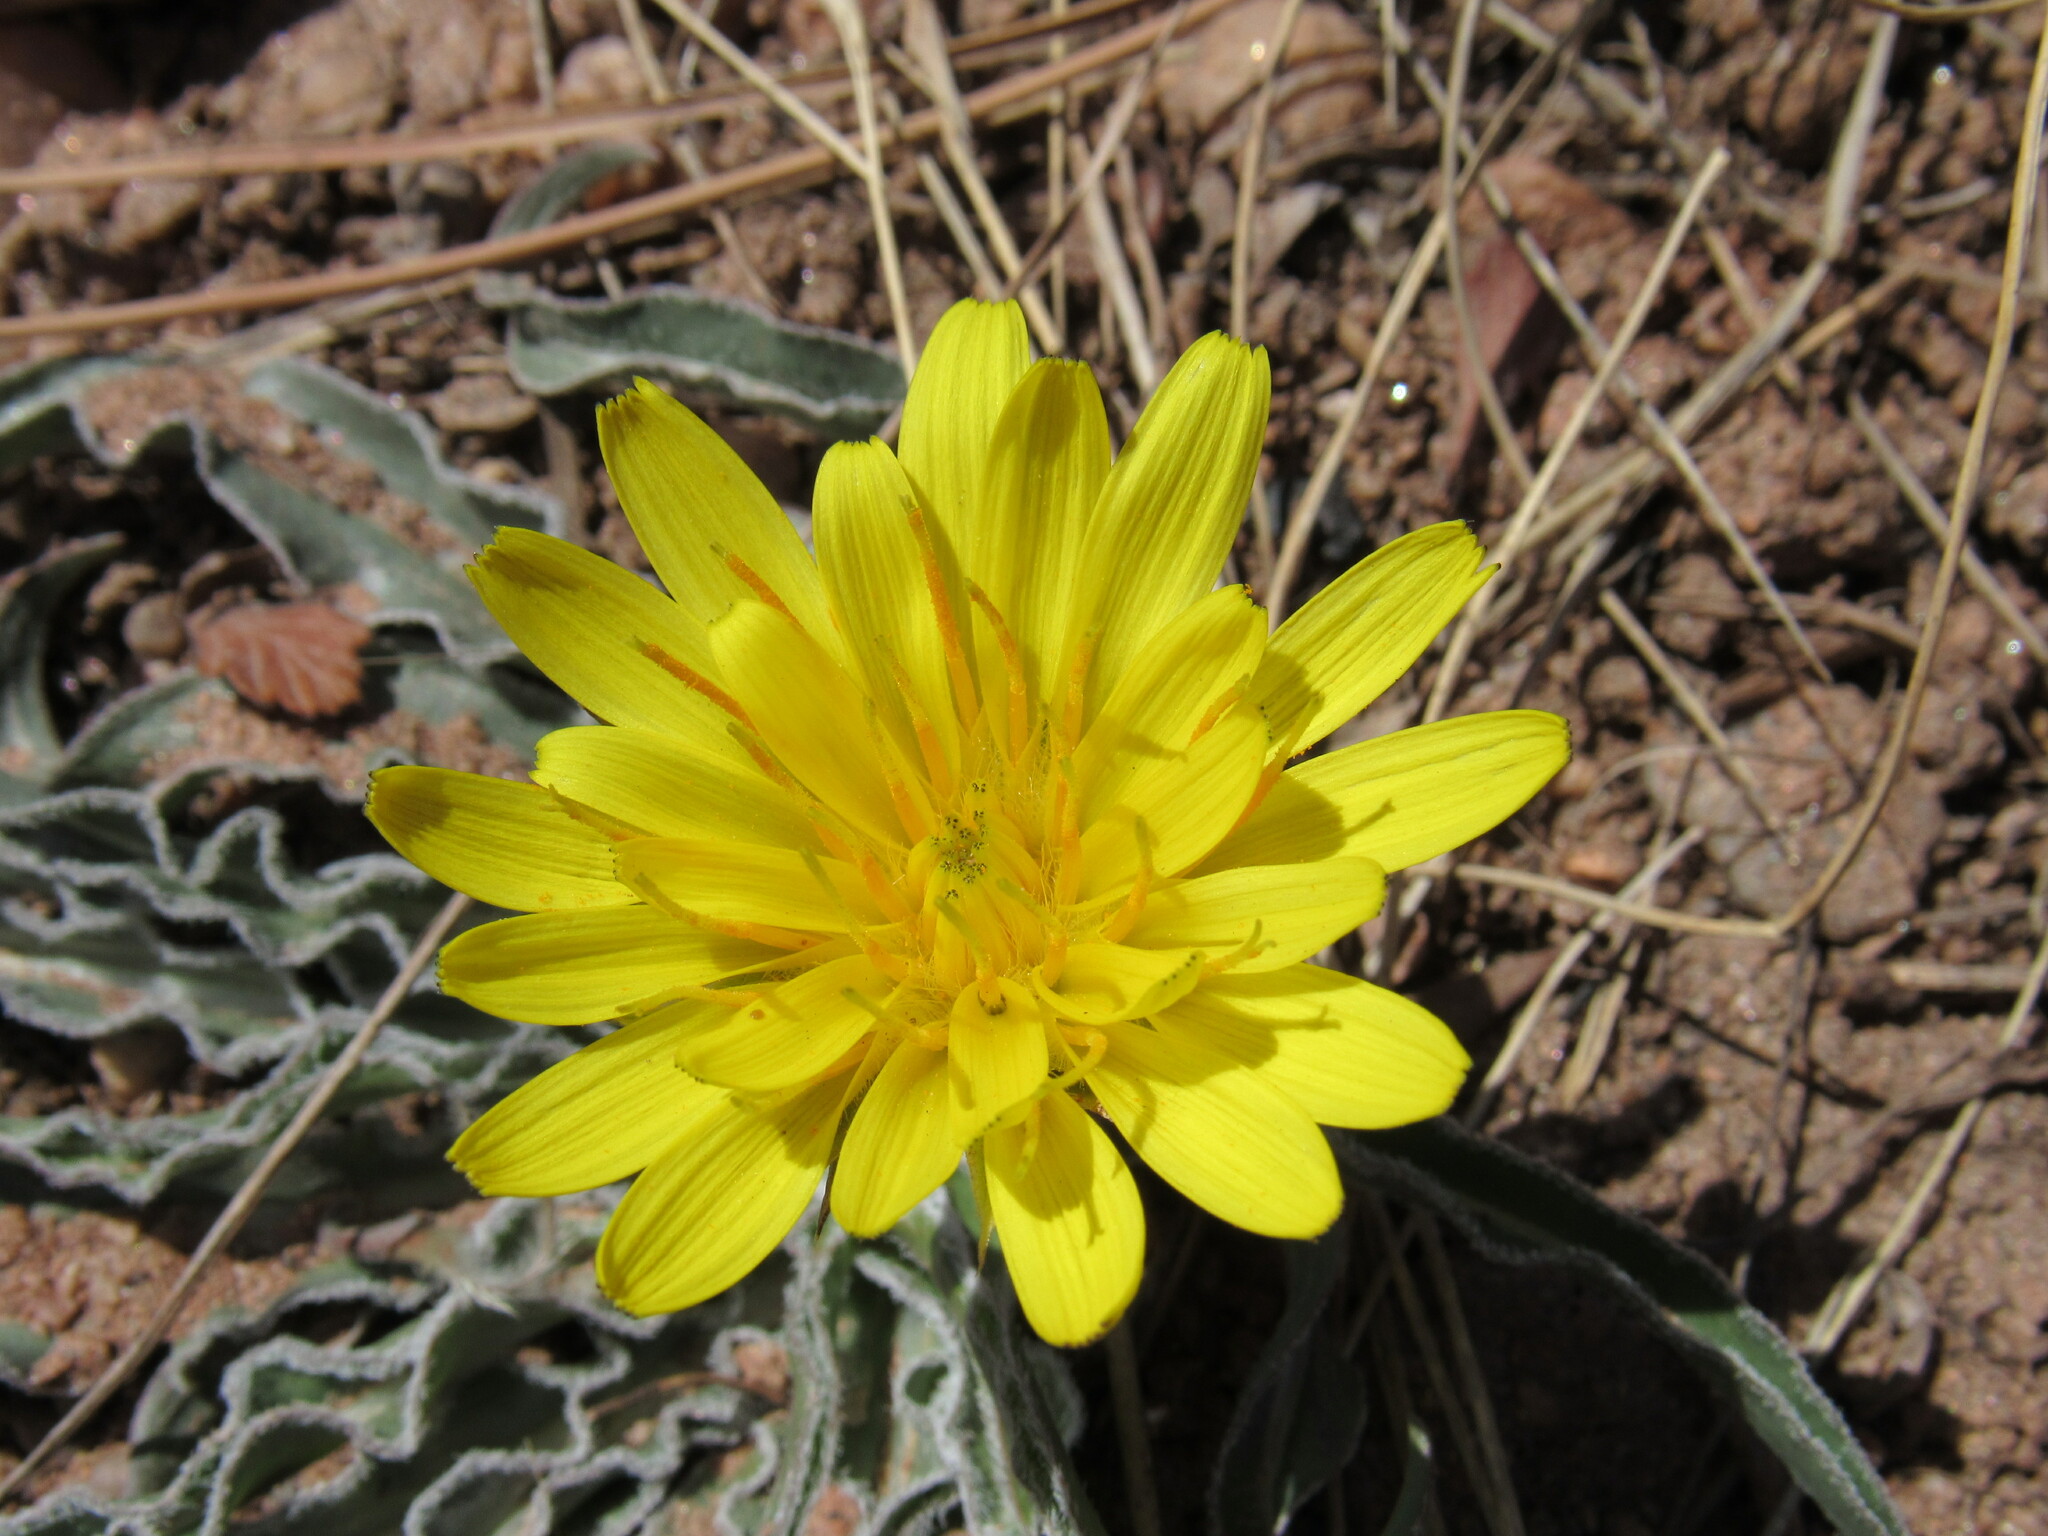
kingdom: Plantae
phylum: Tracheophyta
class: Magnoliopsida
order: Asterales
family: Asteraceae
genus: Microseris
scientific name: Microseris cuspidata
